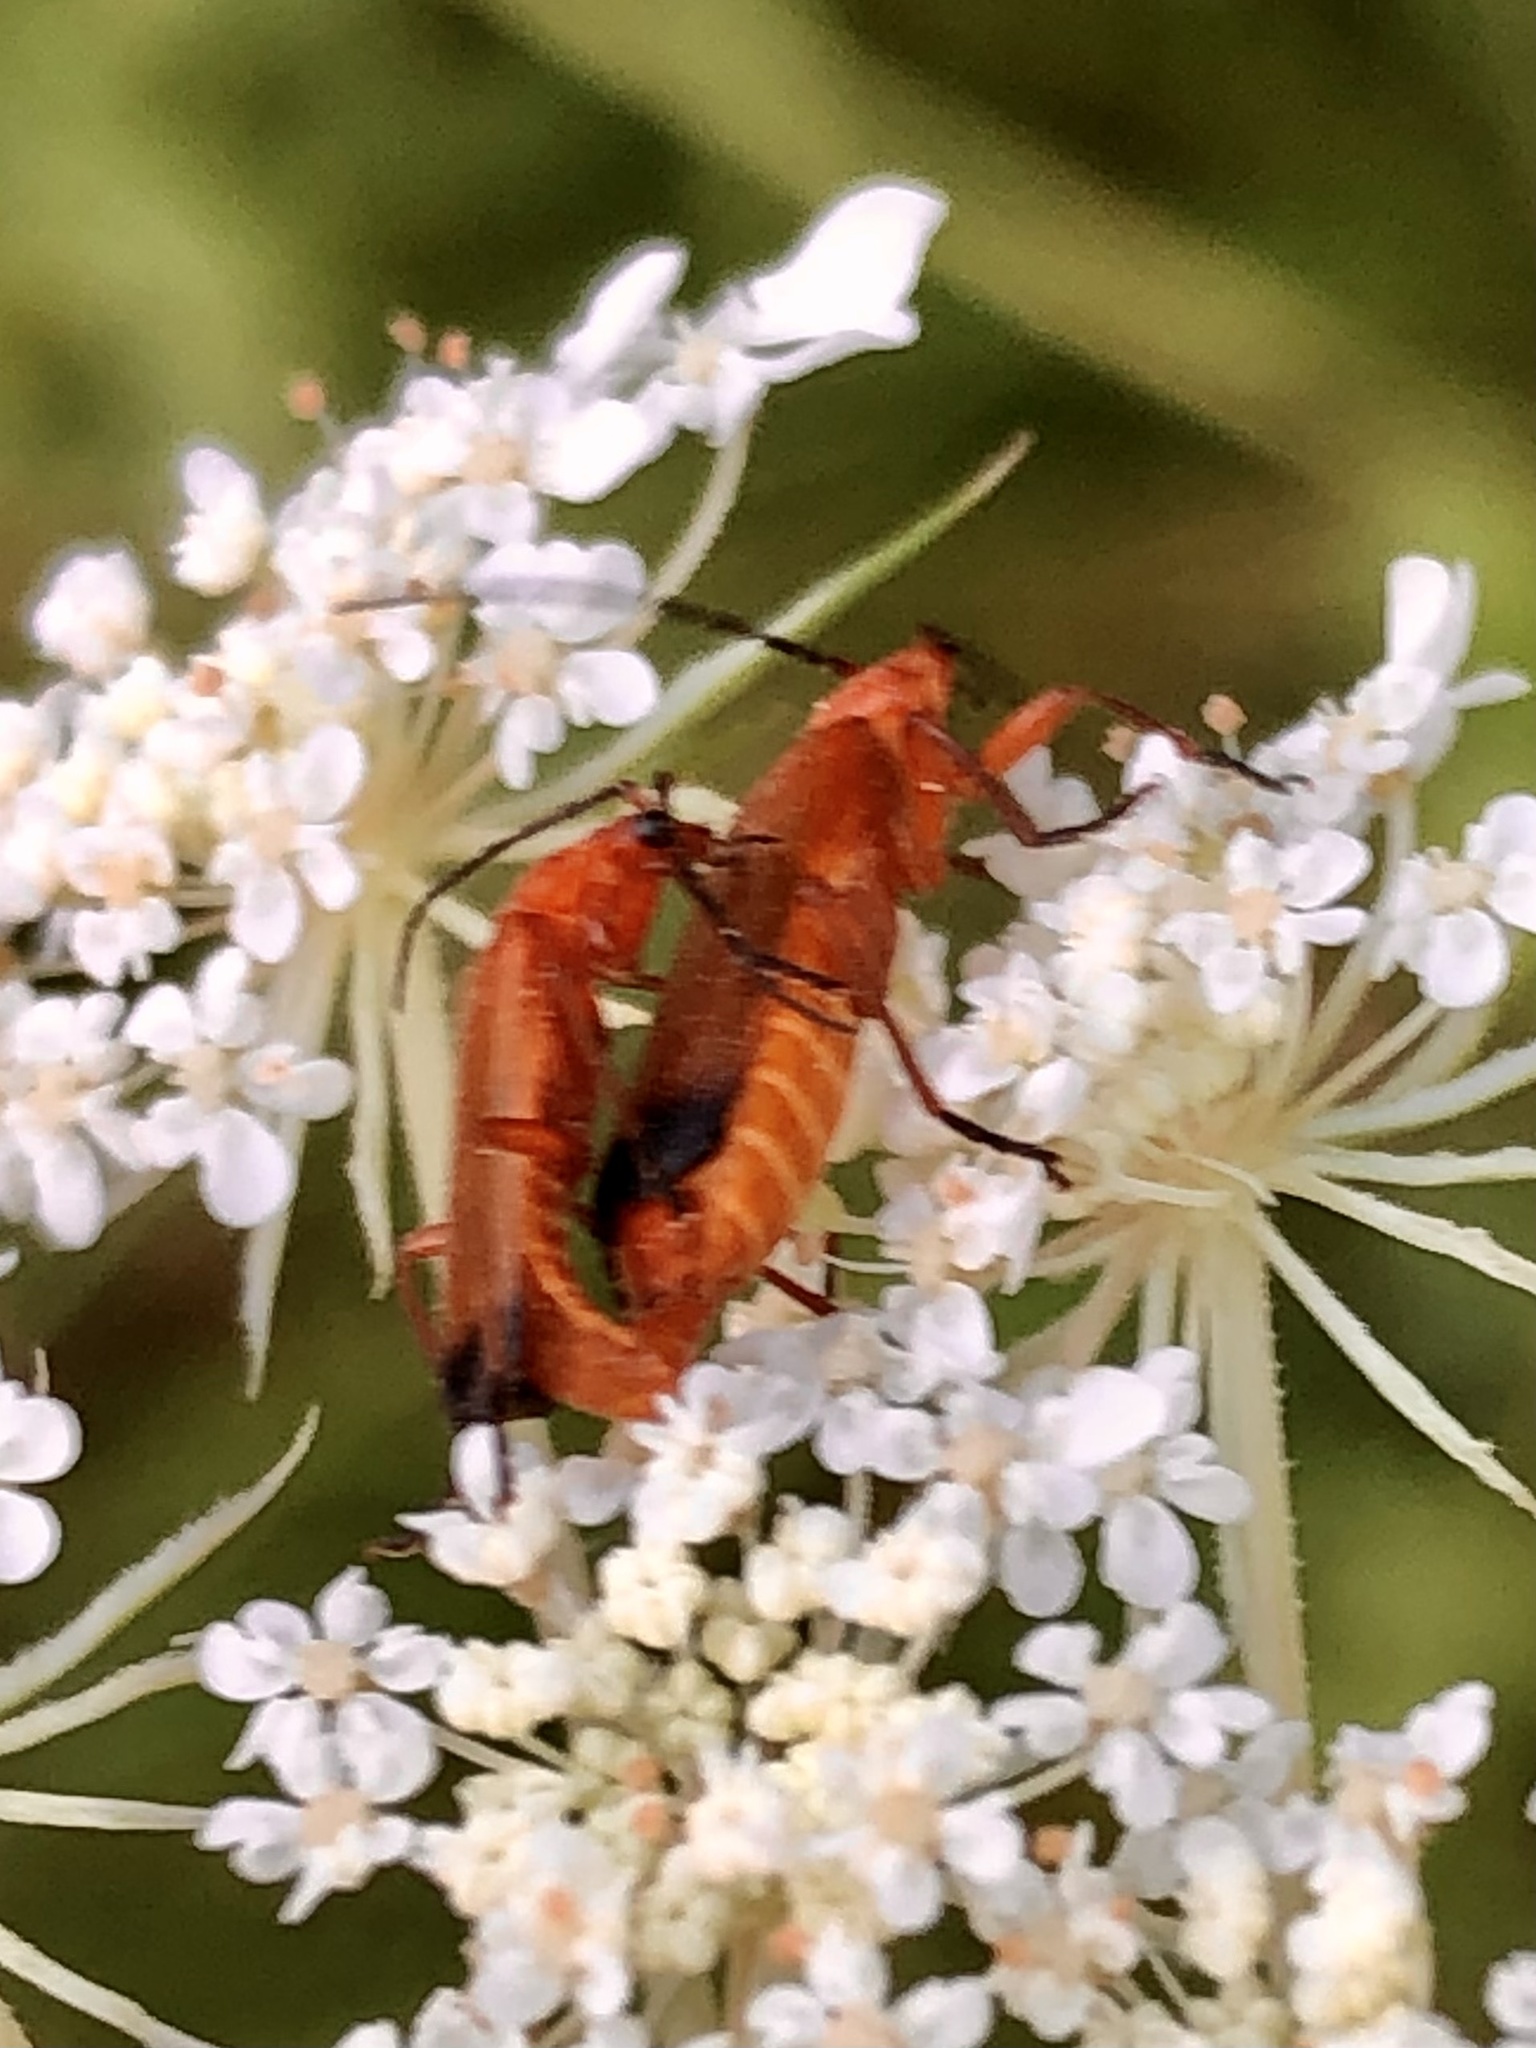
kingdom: Animalia
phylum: Arthropoda
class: Insecta
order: Coleoptera
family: Cantharidae
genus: Rhagonycha
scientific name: Rhagonycha fulva
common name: Common red soldier beetle
